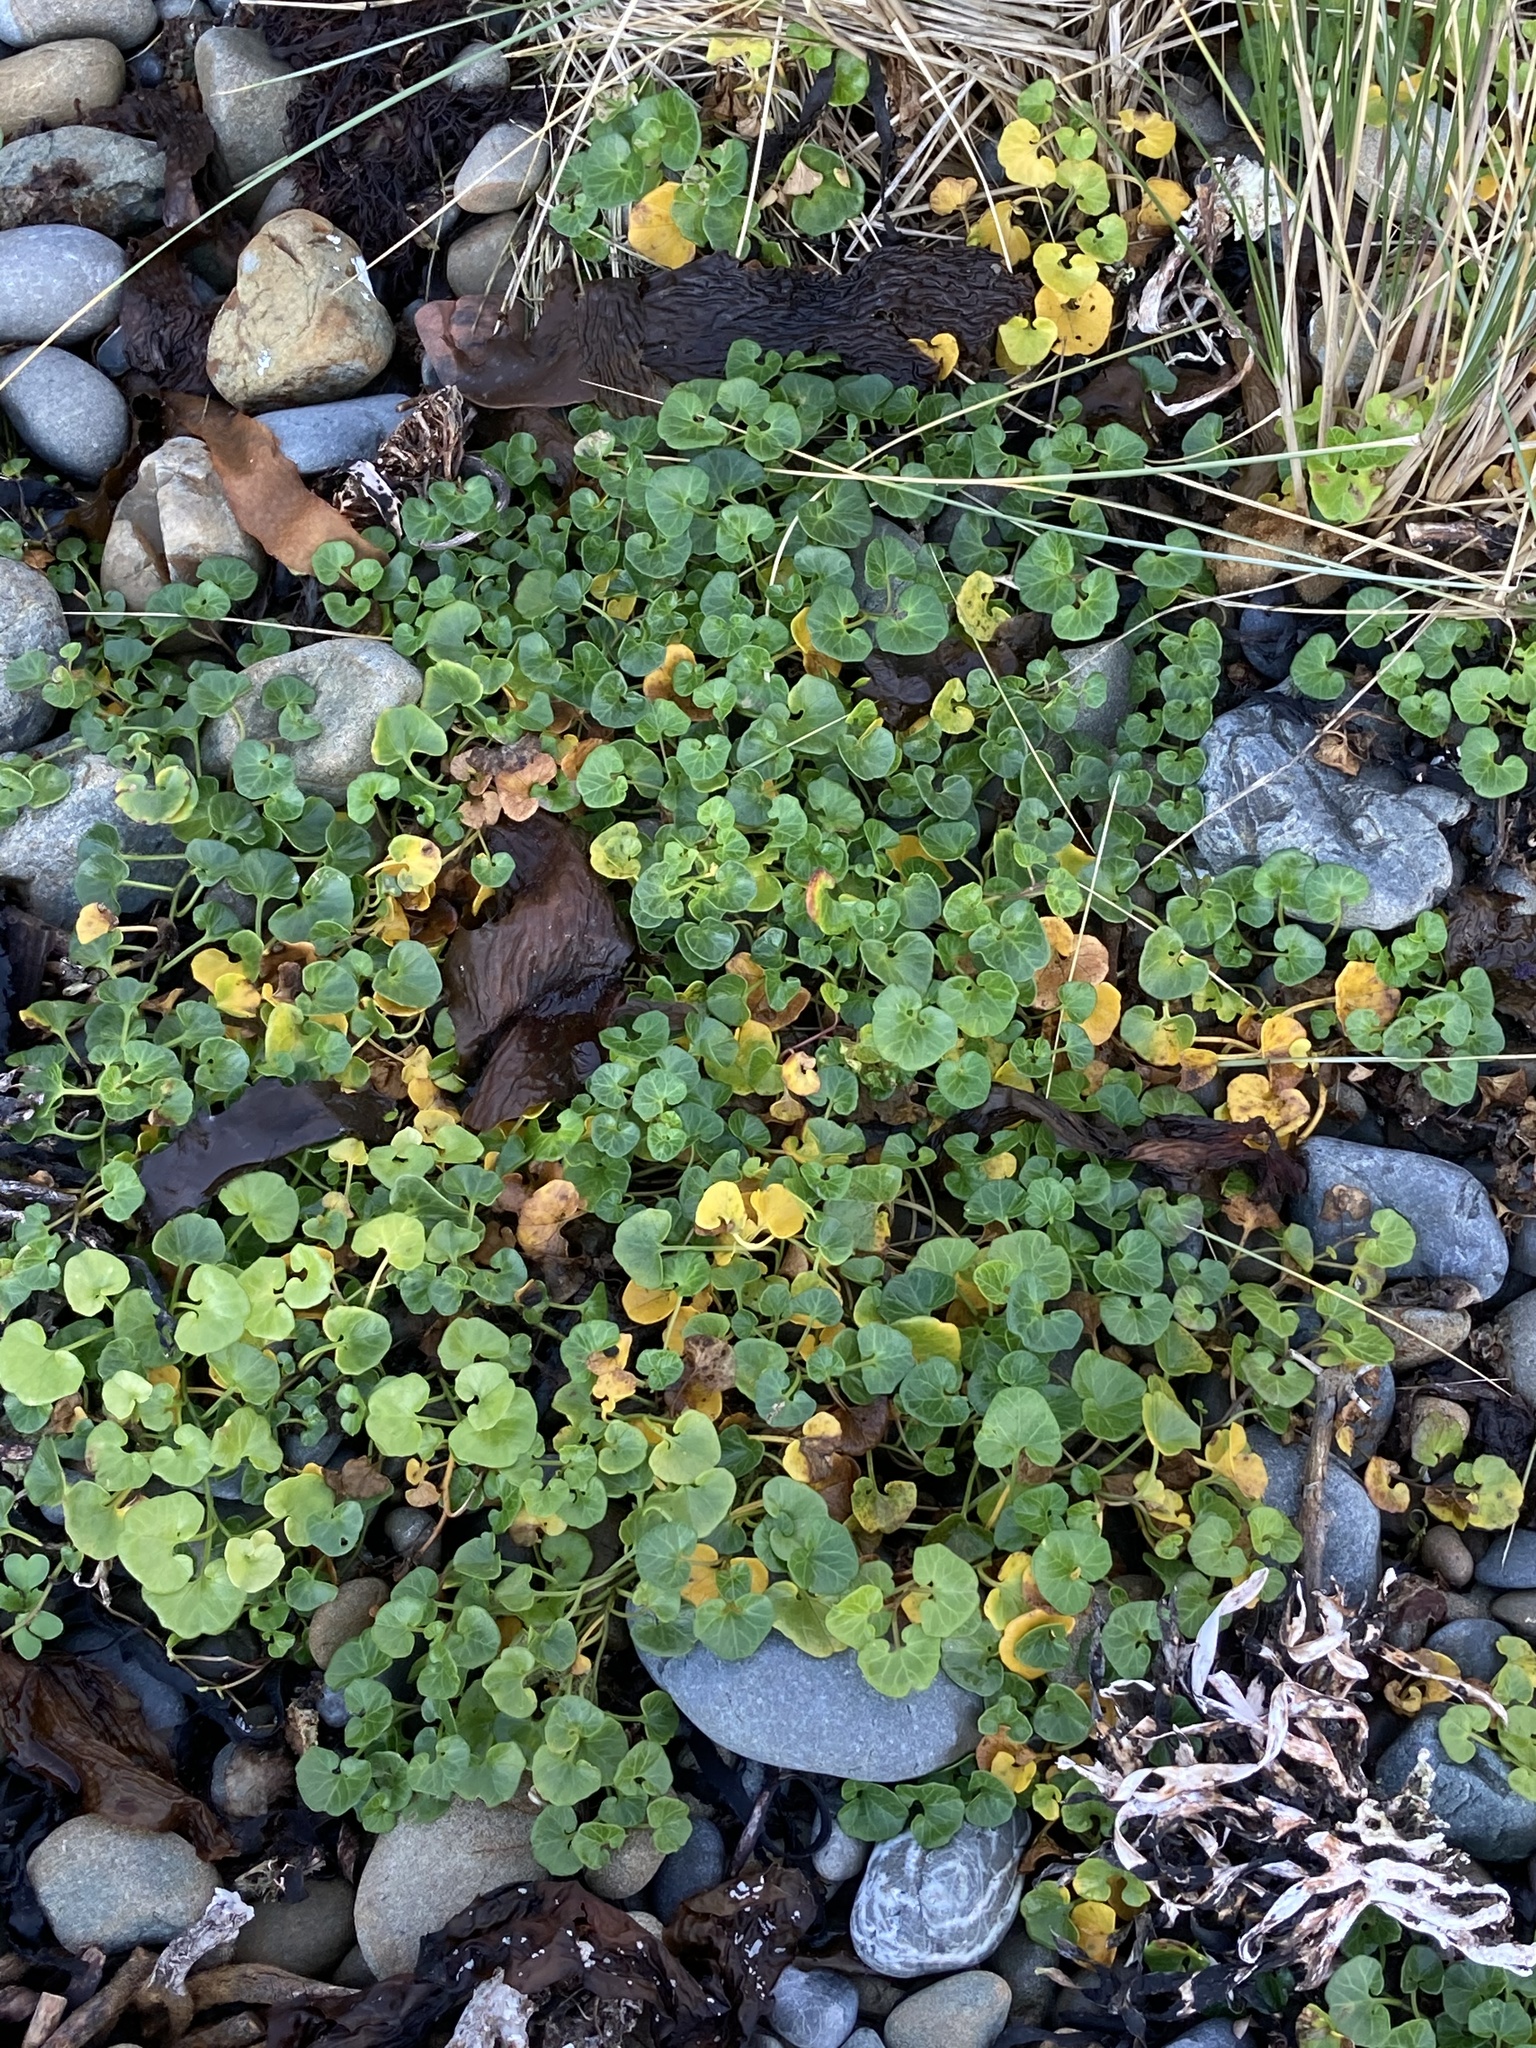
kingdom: Plantae
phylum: Tracheophyta
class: Magnoliopsida
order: Solanales
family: Convolvulaceae
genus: Calystegia
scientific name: Calystegia soldanella
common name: Sea bindweed
